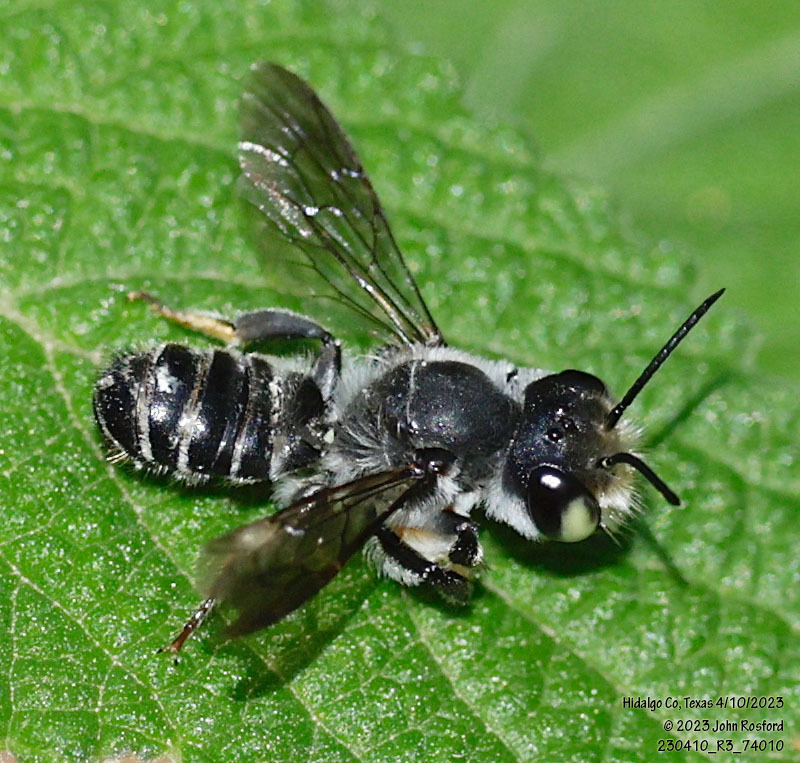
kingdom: Animalia
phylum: Arthropoda
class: Insecta
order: Hymenoptera
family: Megachilidae
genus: Megachile
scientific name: Megachile zaptlana
